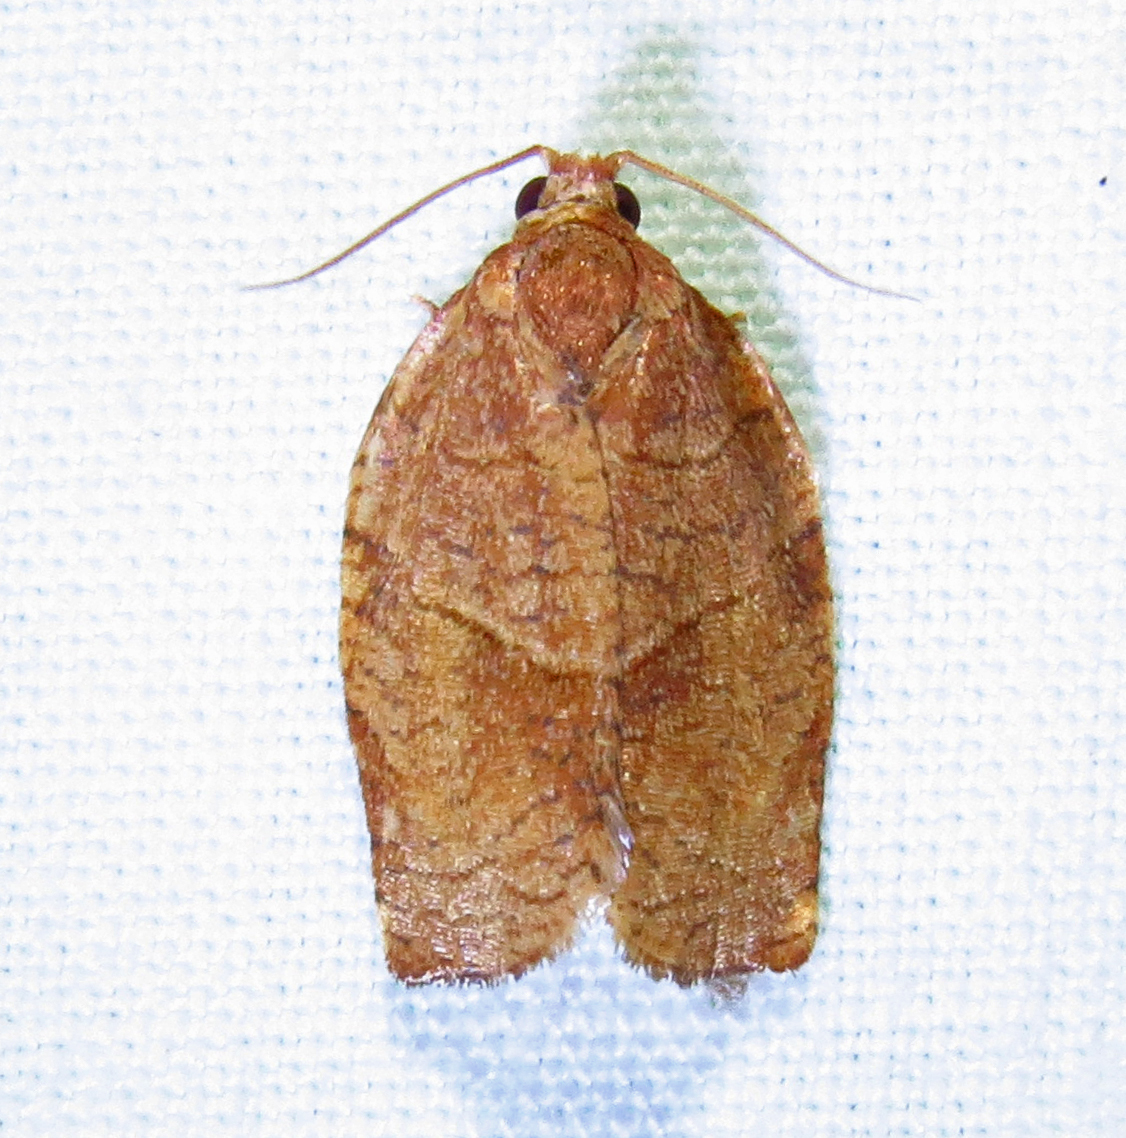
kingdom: Animalia
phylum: Arthropoda
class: Insecta
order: Lepidoptera
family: Tortricidae
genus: Choristoneura
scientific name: Choristoneura rosaceana
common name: Oblique-banded leafroller moth
